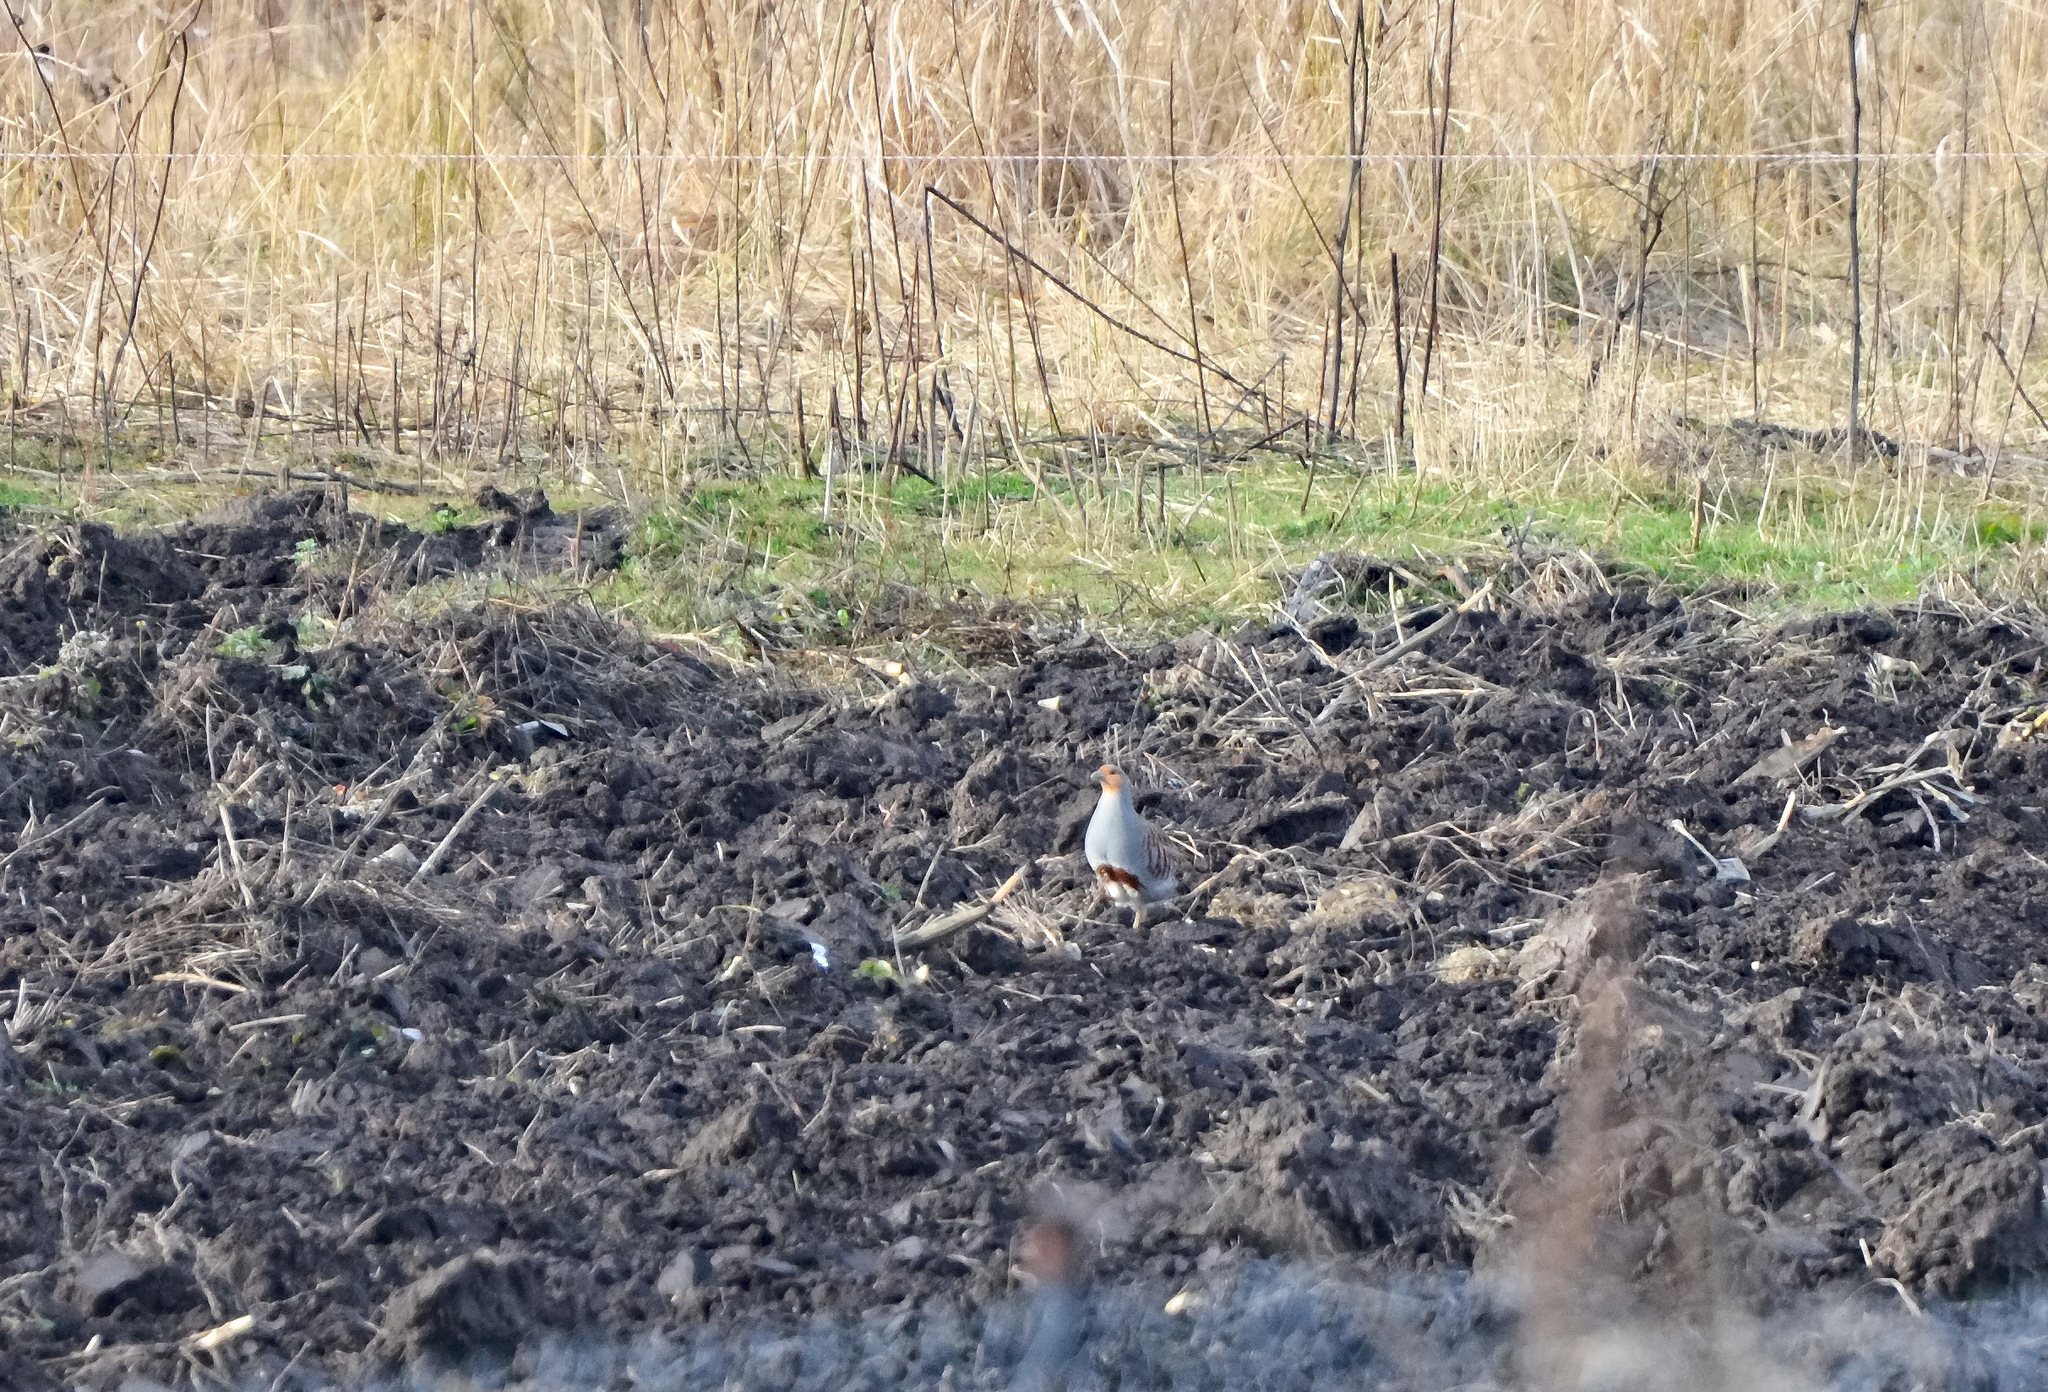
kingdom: Animalia
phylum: Chordata
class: Aves
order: Galliformes
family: Phasianidae
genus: Perdix
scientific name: Perdix perdix
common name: Grey partridge
